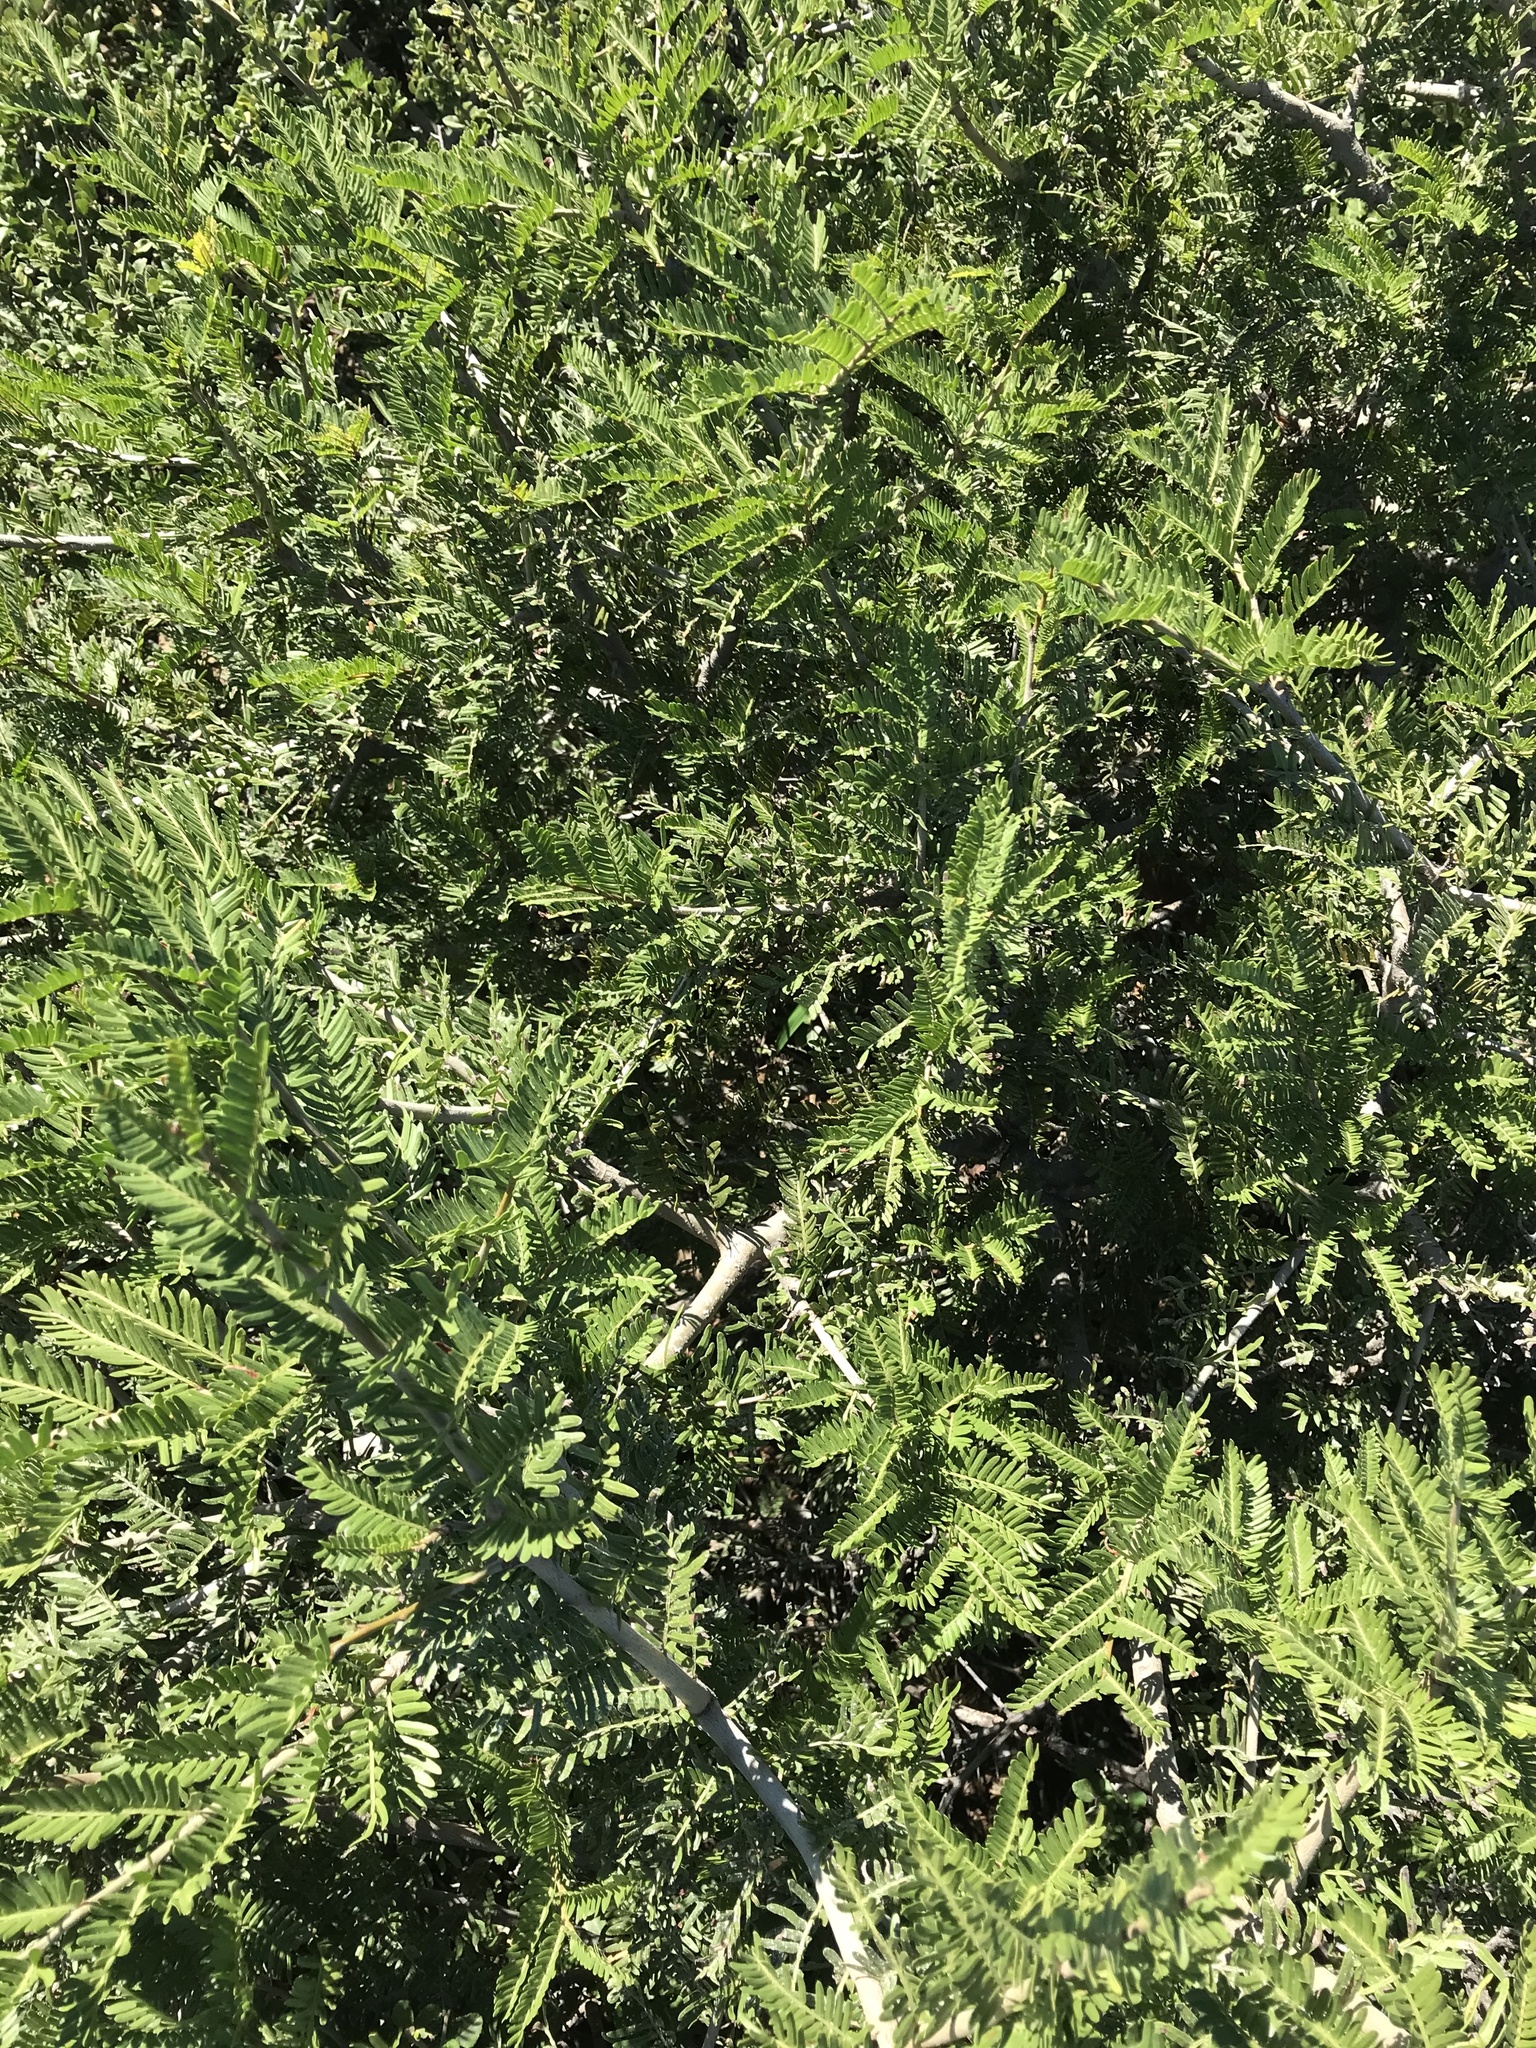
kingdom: Plantae
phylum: Tracheophyta
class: Magnoliopsida
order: Fabales
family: Fabaceae
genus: Schotia
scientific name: Schotia afra
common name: Hottentot's bean
